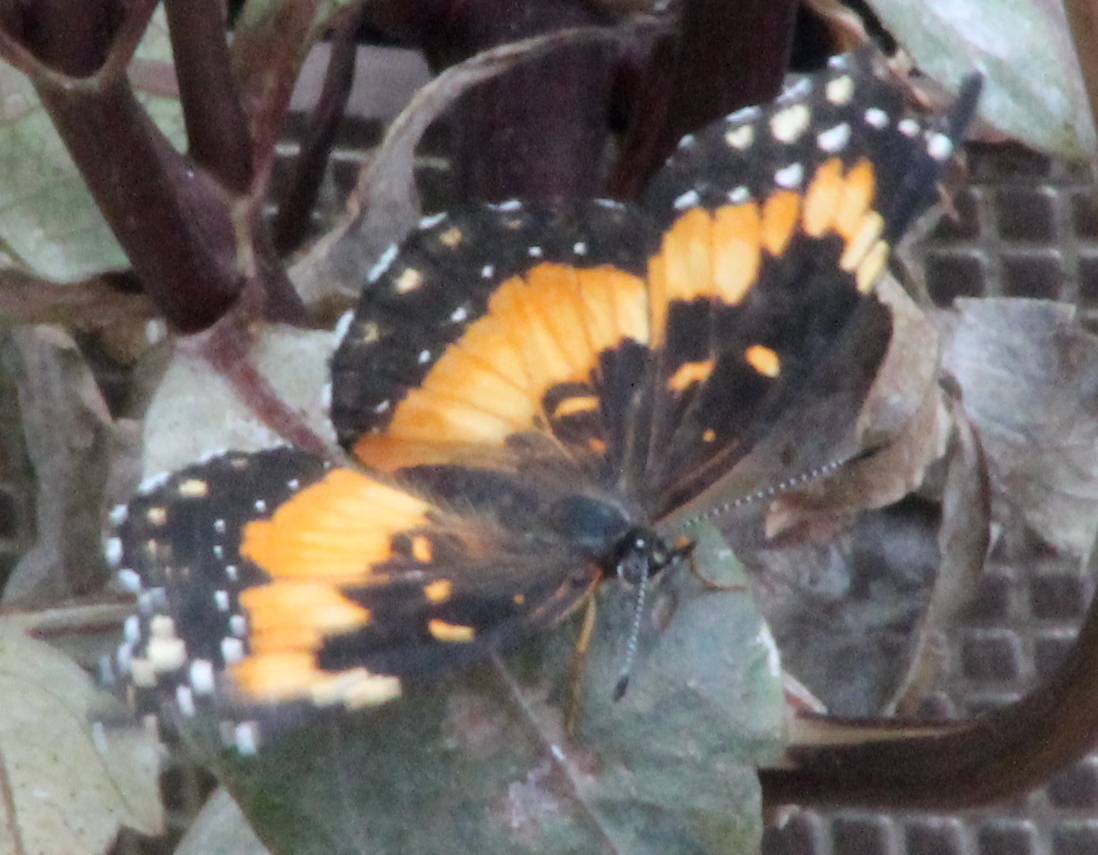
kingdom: Animalia
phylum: Arthropoda
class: Insecta
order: Lepidoptera
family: Nymphalidae
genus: Chlosyne
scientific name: Chlosyne lacinia
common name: Bordered patch
